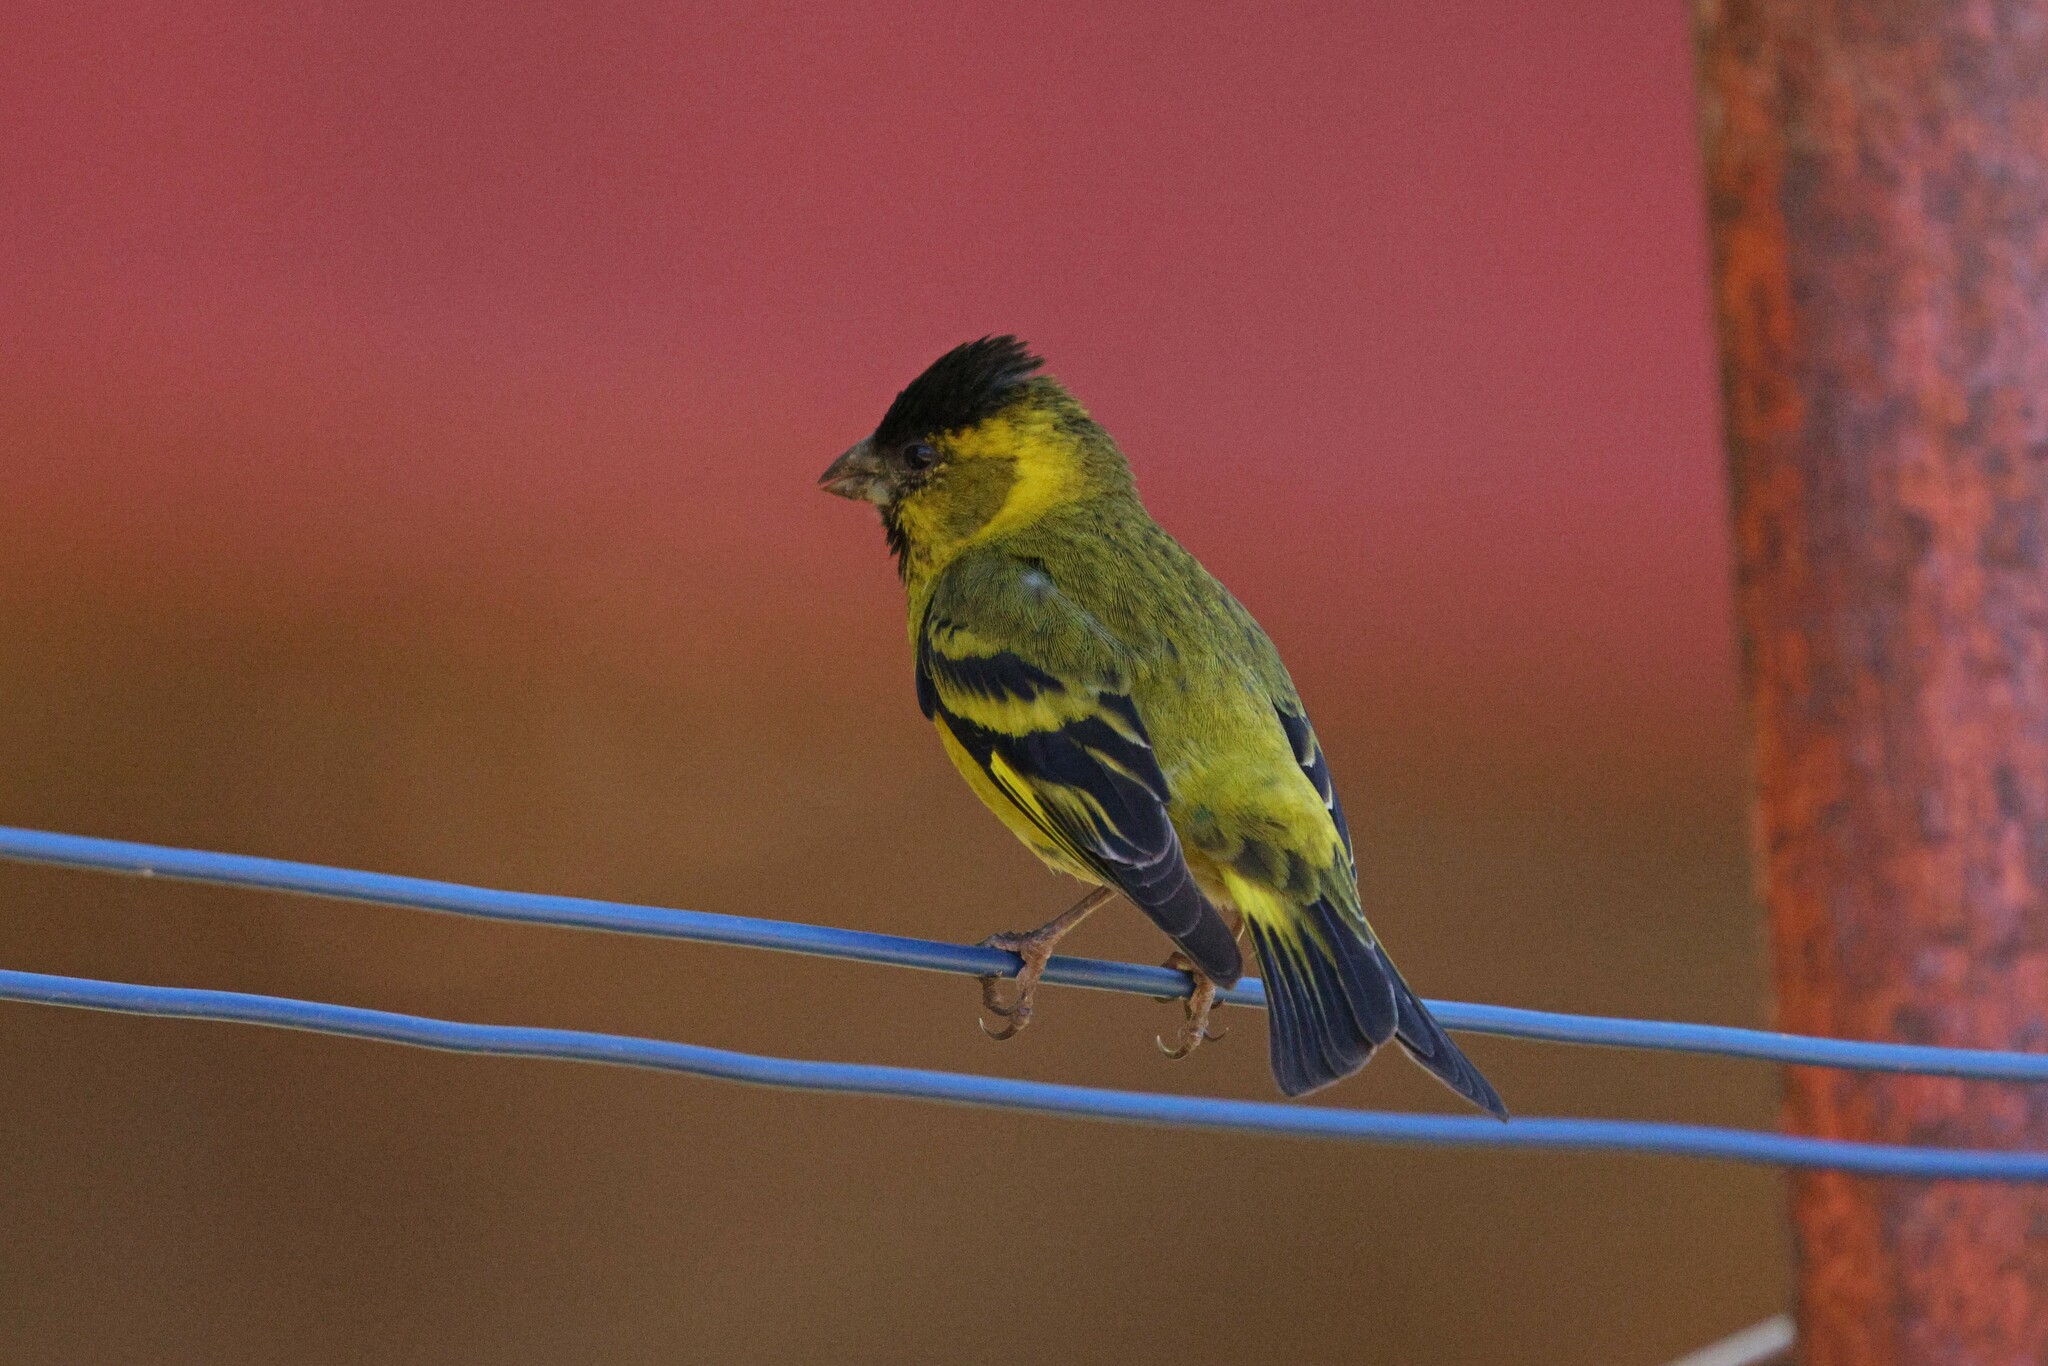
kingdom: Animalia
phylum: Chordata
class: Aves
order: Passeriformes
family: Fringillidae
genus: Spinus
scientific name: Spinus barbatus
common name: Black-chinned siskin
